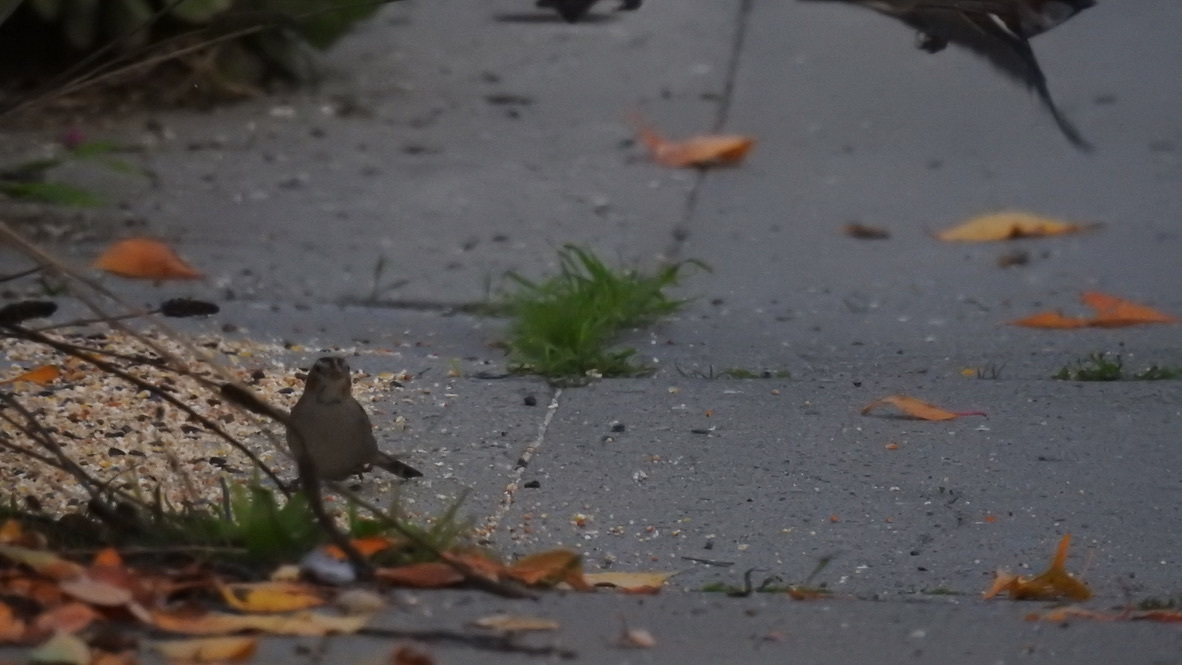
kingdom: Animalia
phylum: Chordata
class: Aves
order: Passeriformes
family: Passerellidae
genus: Zonotrichia
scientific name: Zonotrichia leucophrys
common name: White-crowned sparrow
